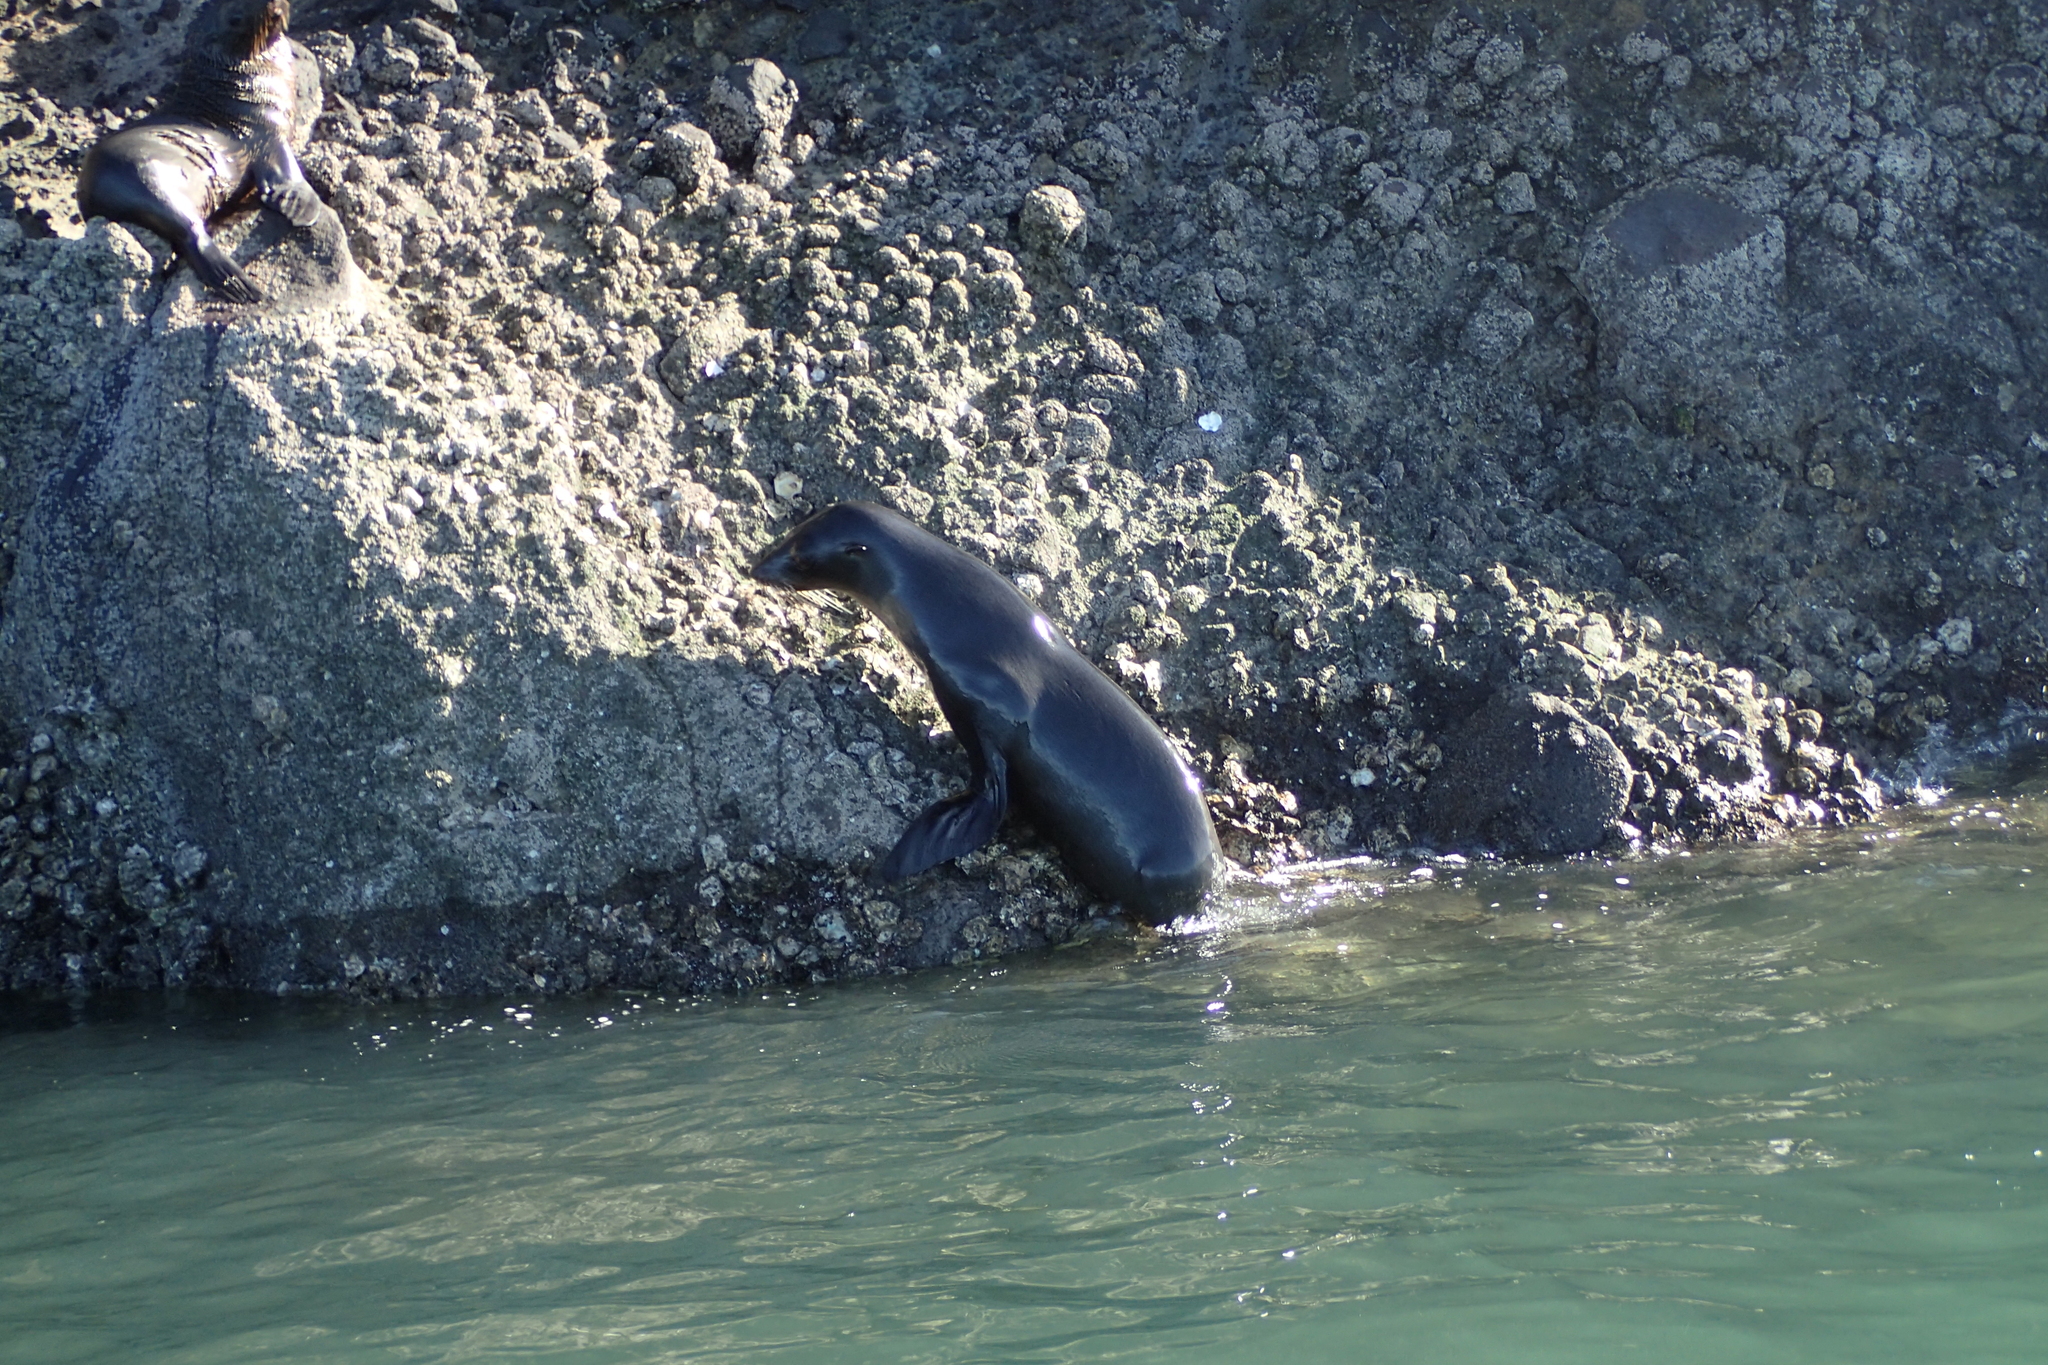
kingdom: Animalia
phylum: Chordata
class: Mammalia
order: Carnivora
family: Otariidae
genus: Arctocephalus
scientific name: Arctocephalus forsteri
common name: New zealand fur seal
